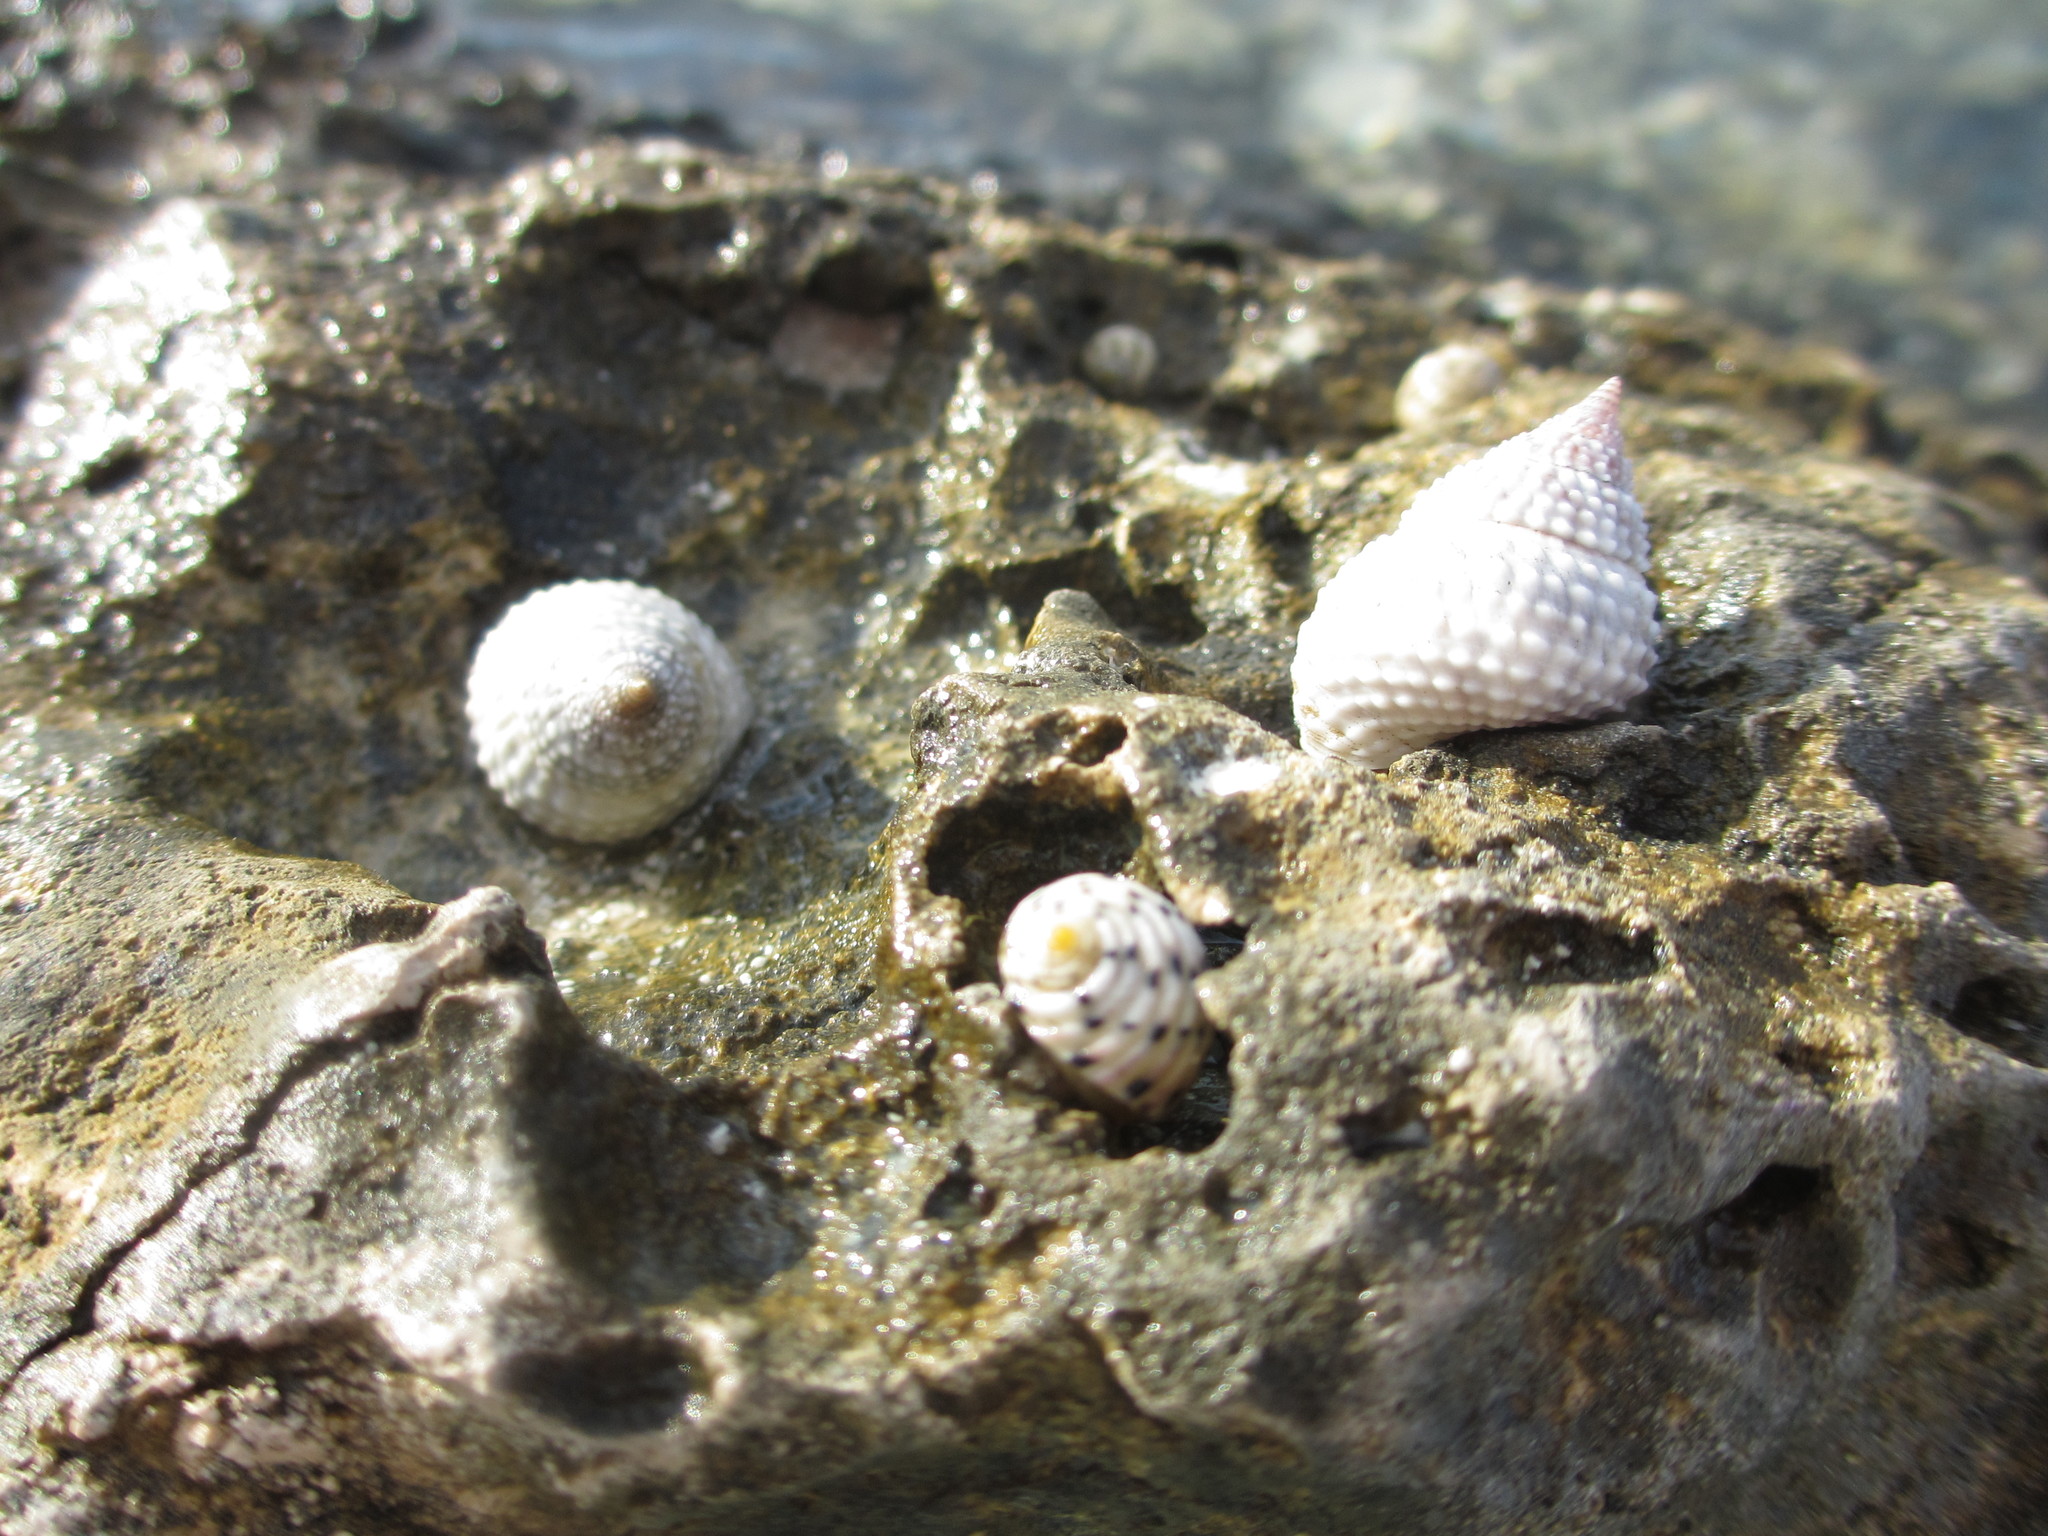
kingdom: Animalia
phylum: Mollusca
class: Gastropoda
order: Littorinimorpha
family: Littorinidae
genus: Cenchritis
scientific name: Cenchritis muricatus
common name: Beaded periwinkle
